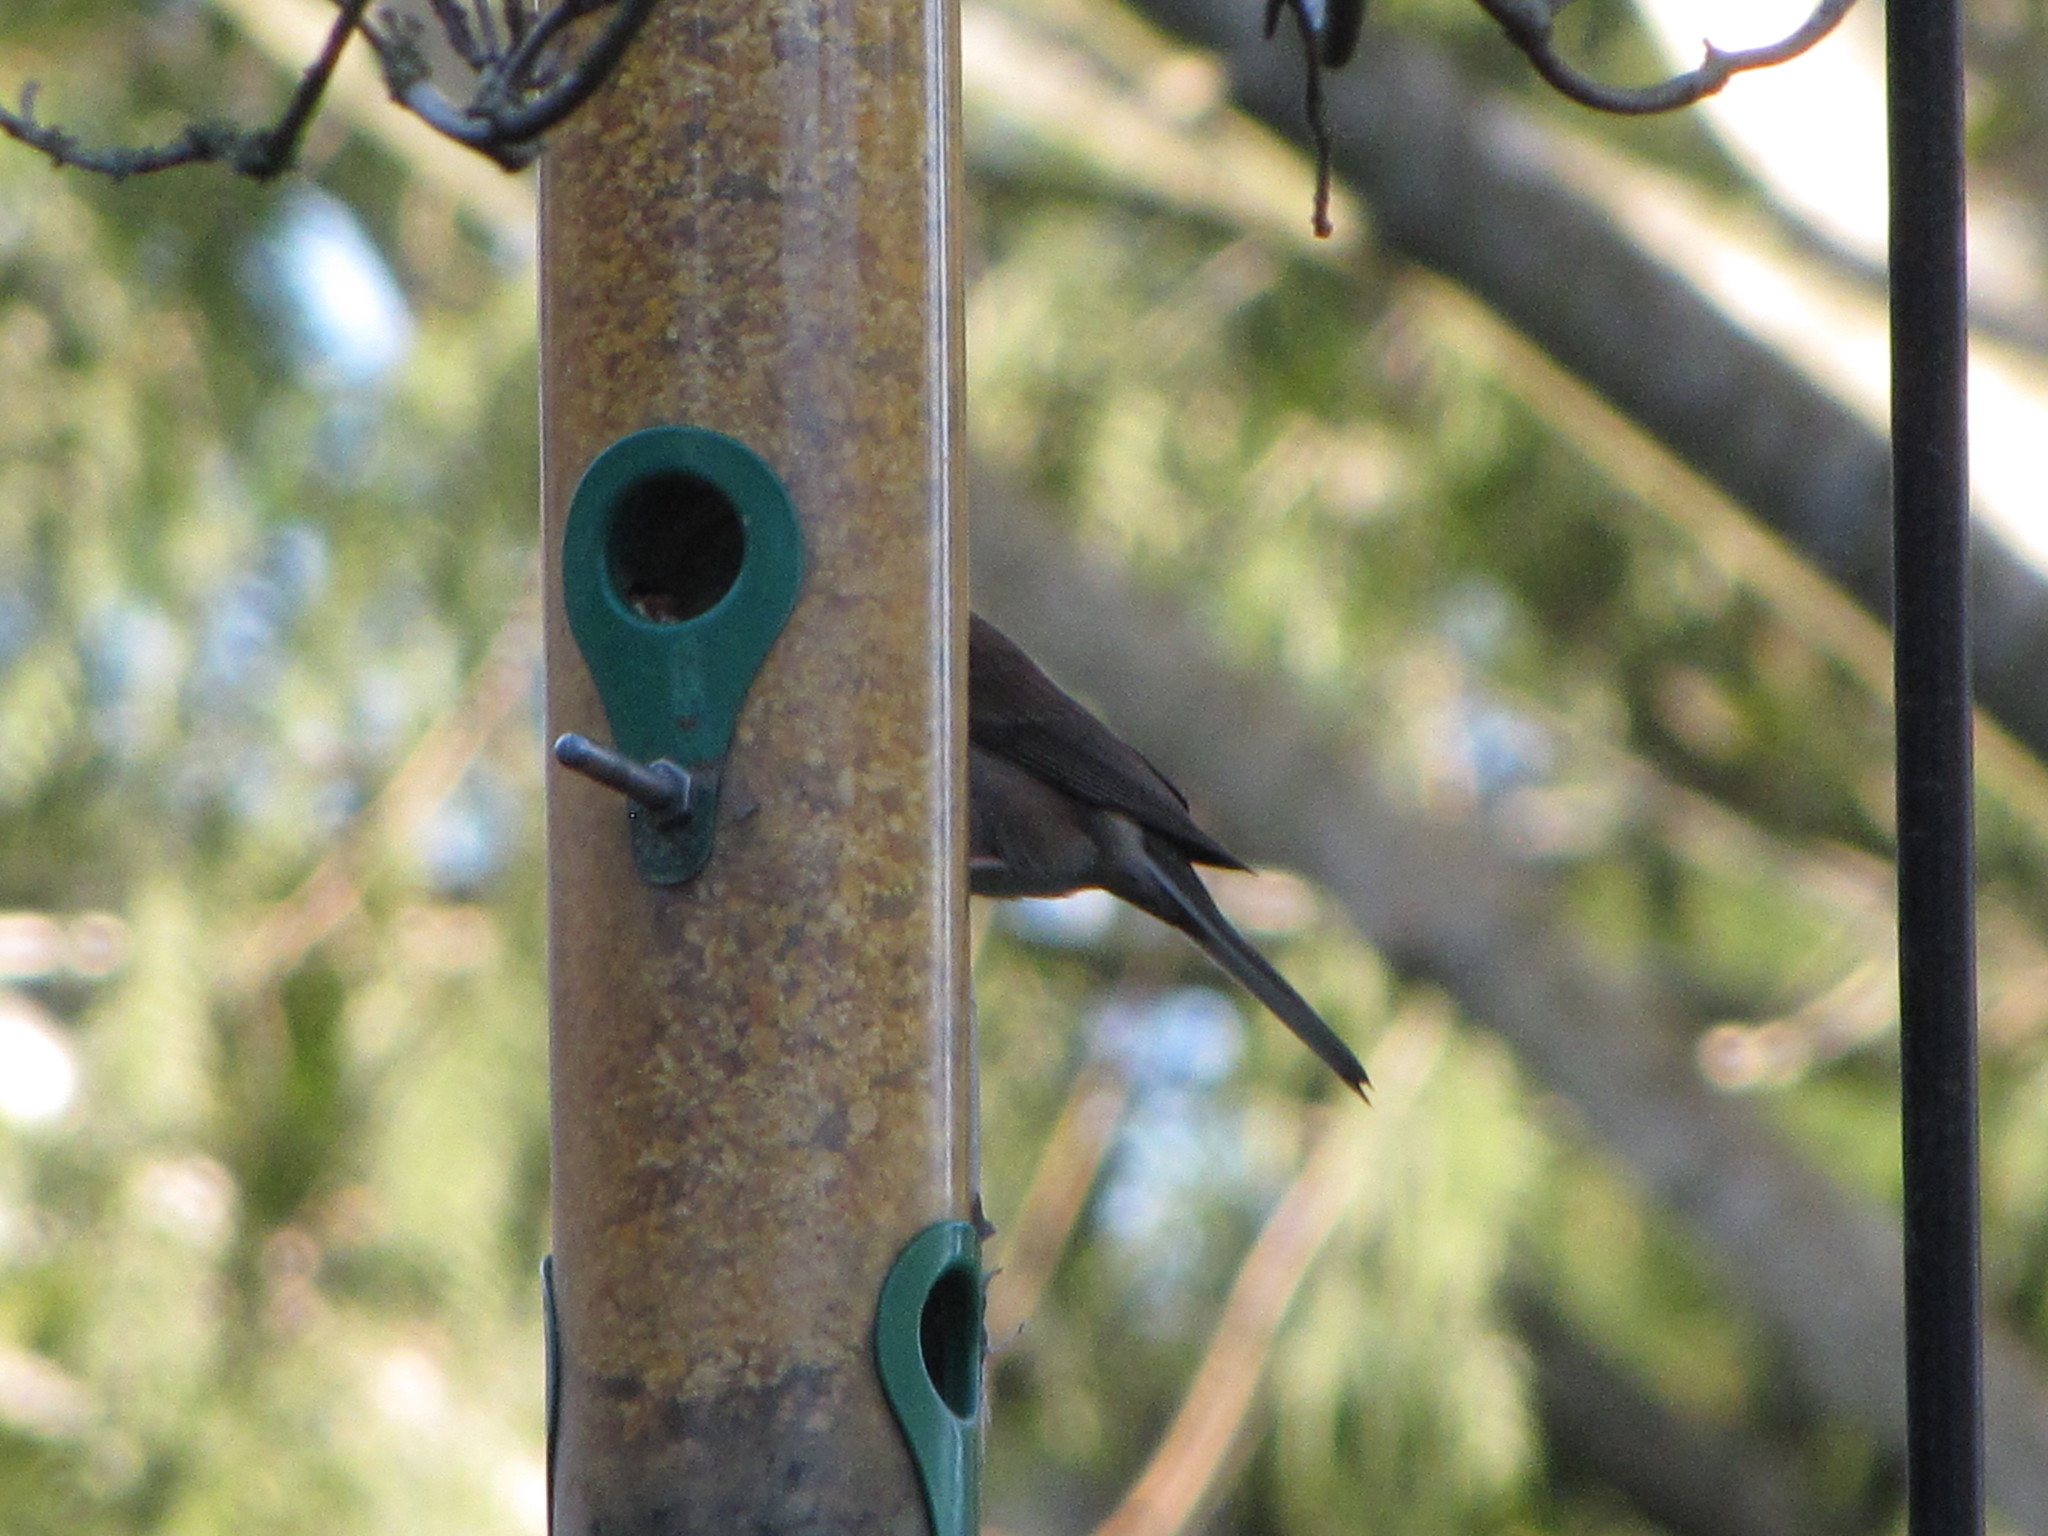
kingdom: Animalia
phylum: Chordata
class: Aves
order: Passeriformes
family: Passerellidae
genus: Junco
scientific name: Junco hyemalis
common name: Dark-eyed junco
